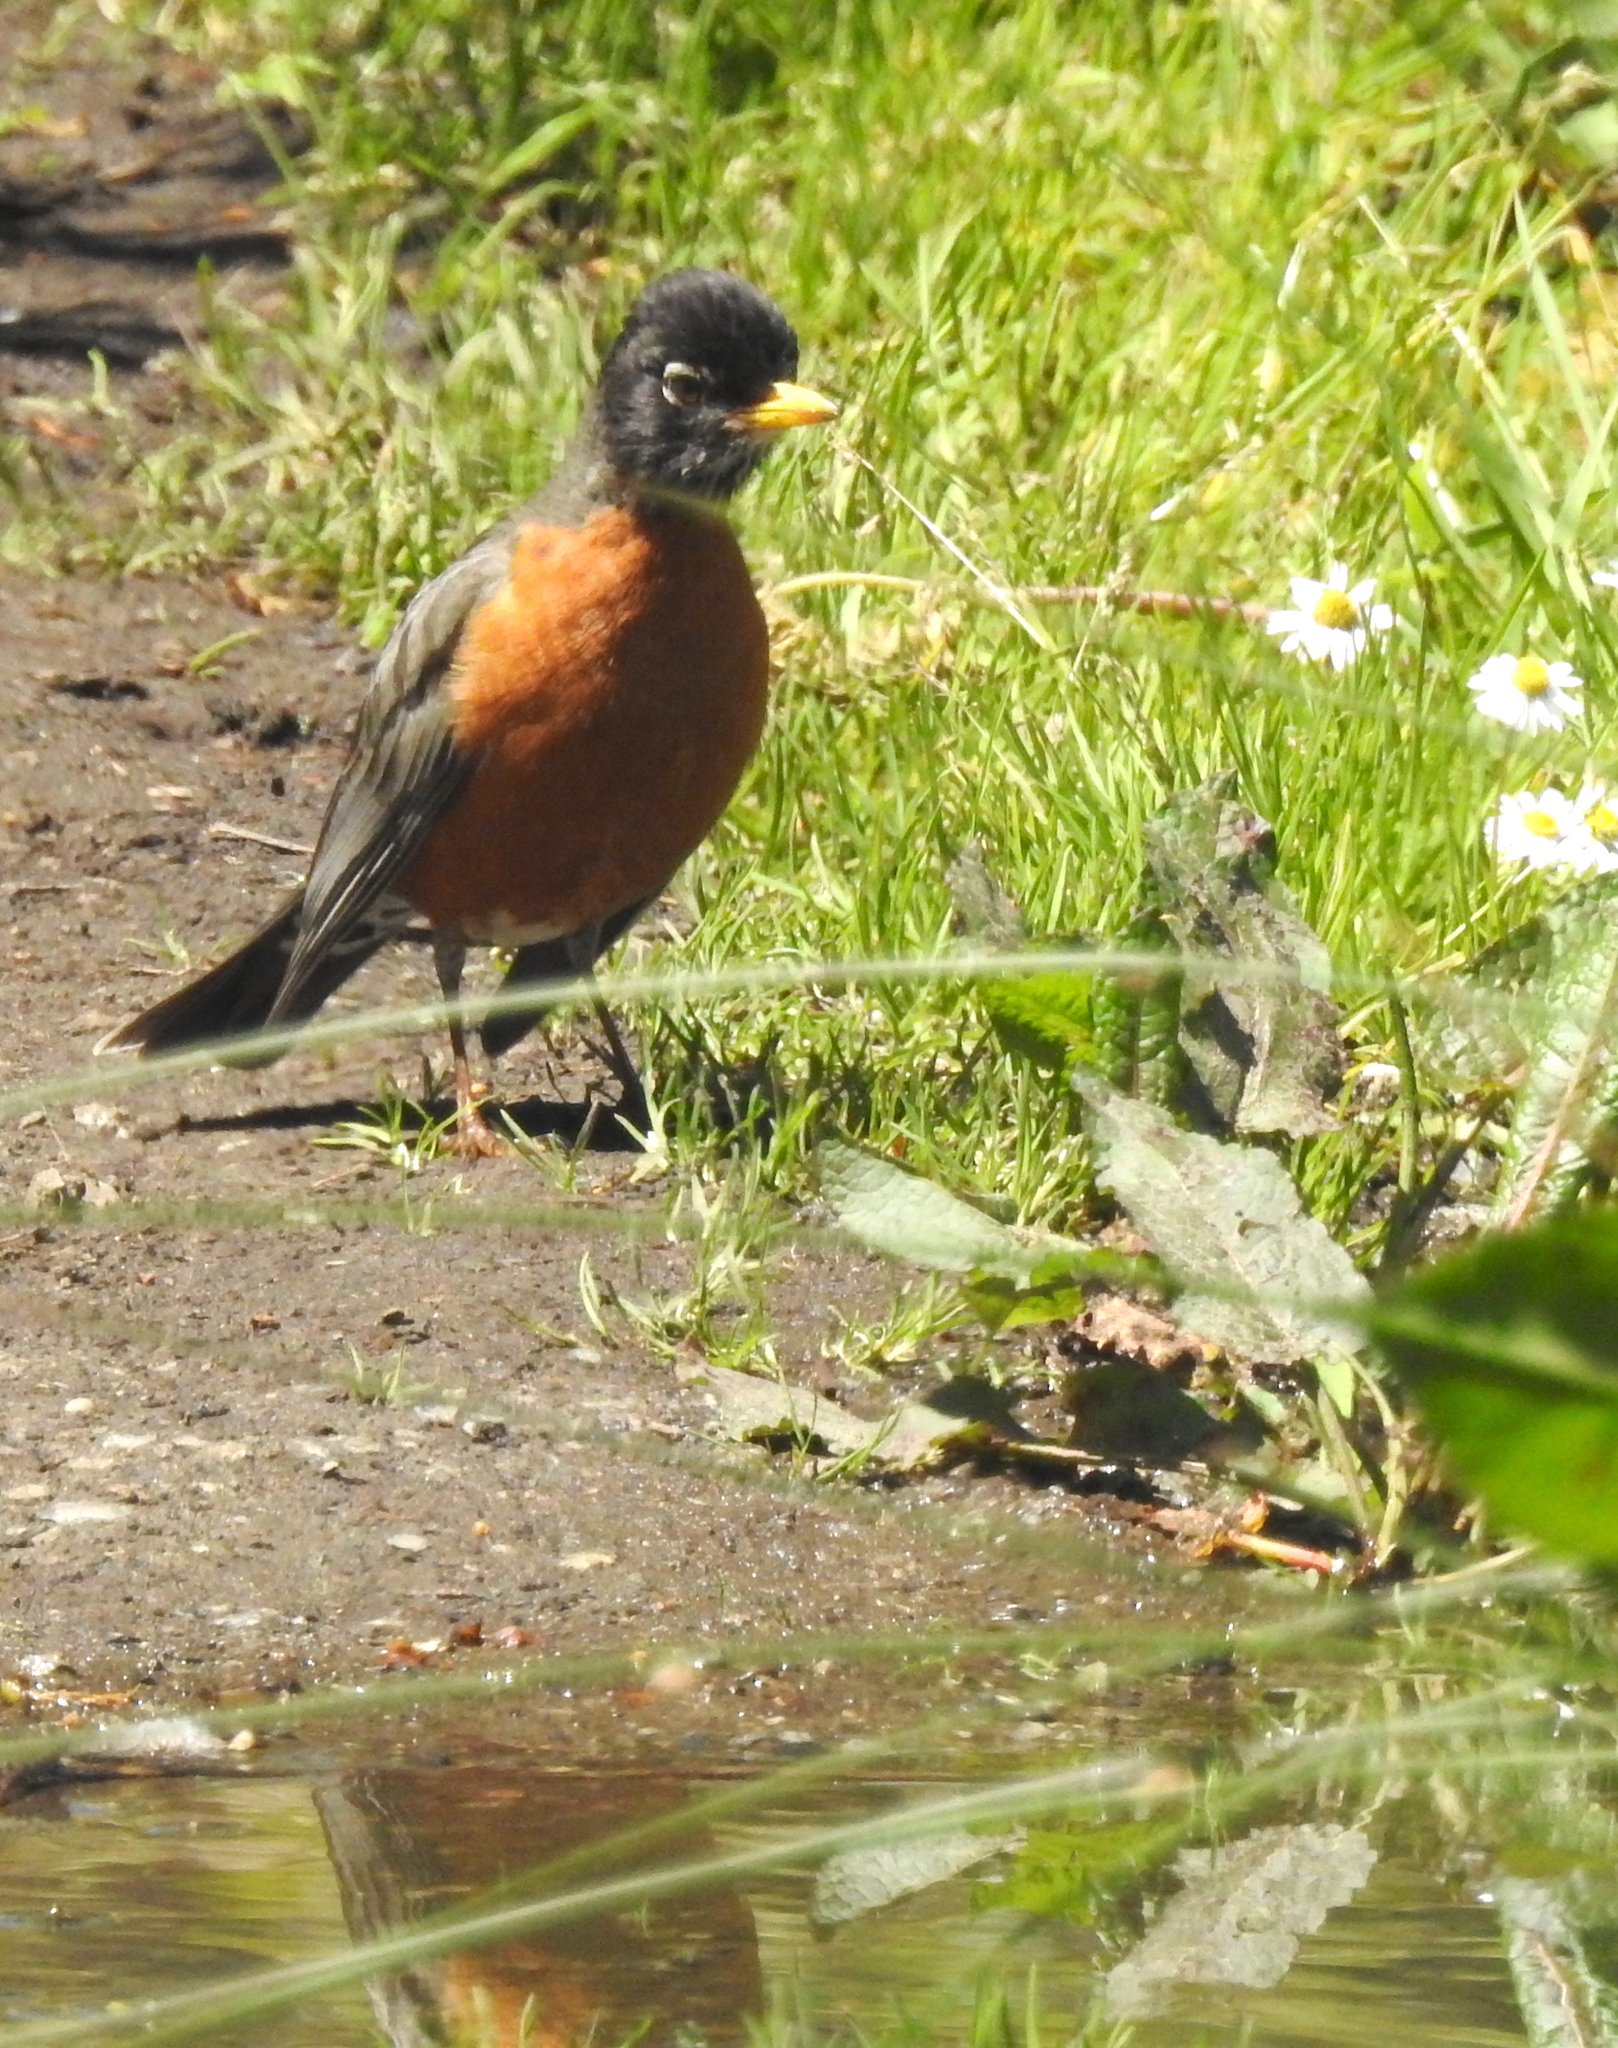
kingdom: Animalia
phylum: Chordata
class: Aves
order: Passeriformes
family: Turdidae
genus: Turdus
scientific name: Turdus migratorius
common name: American robin
